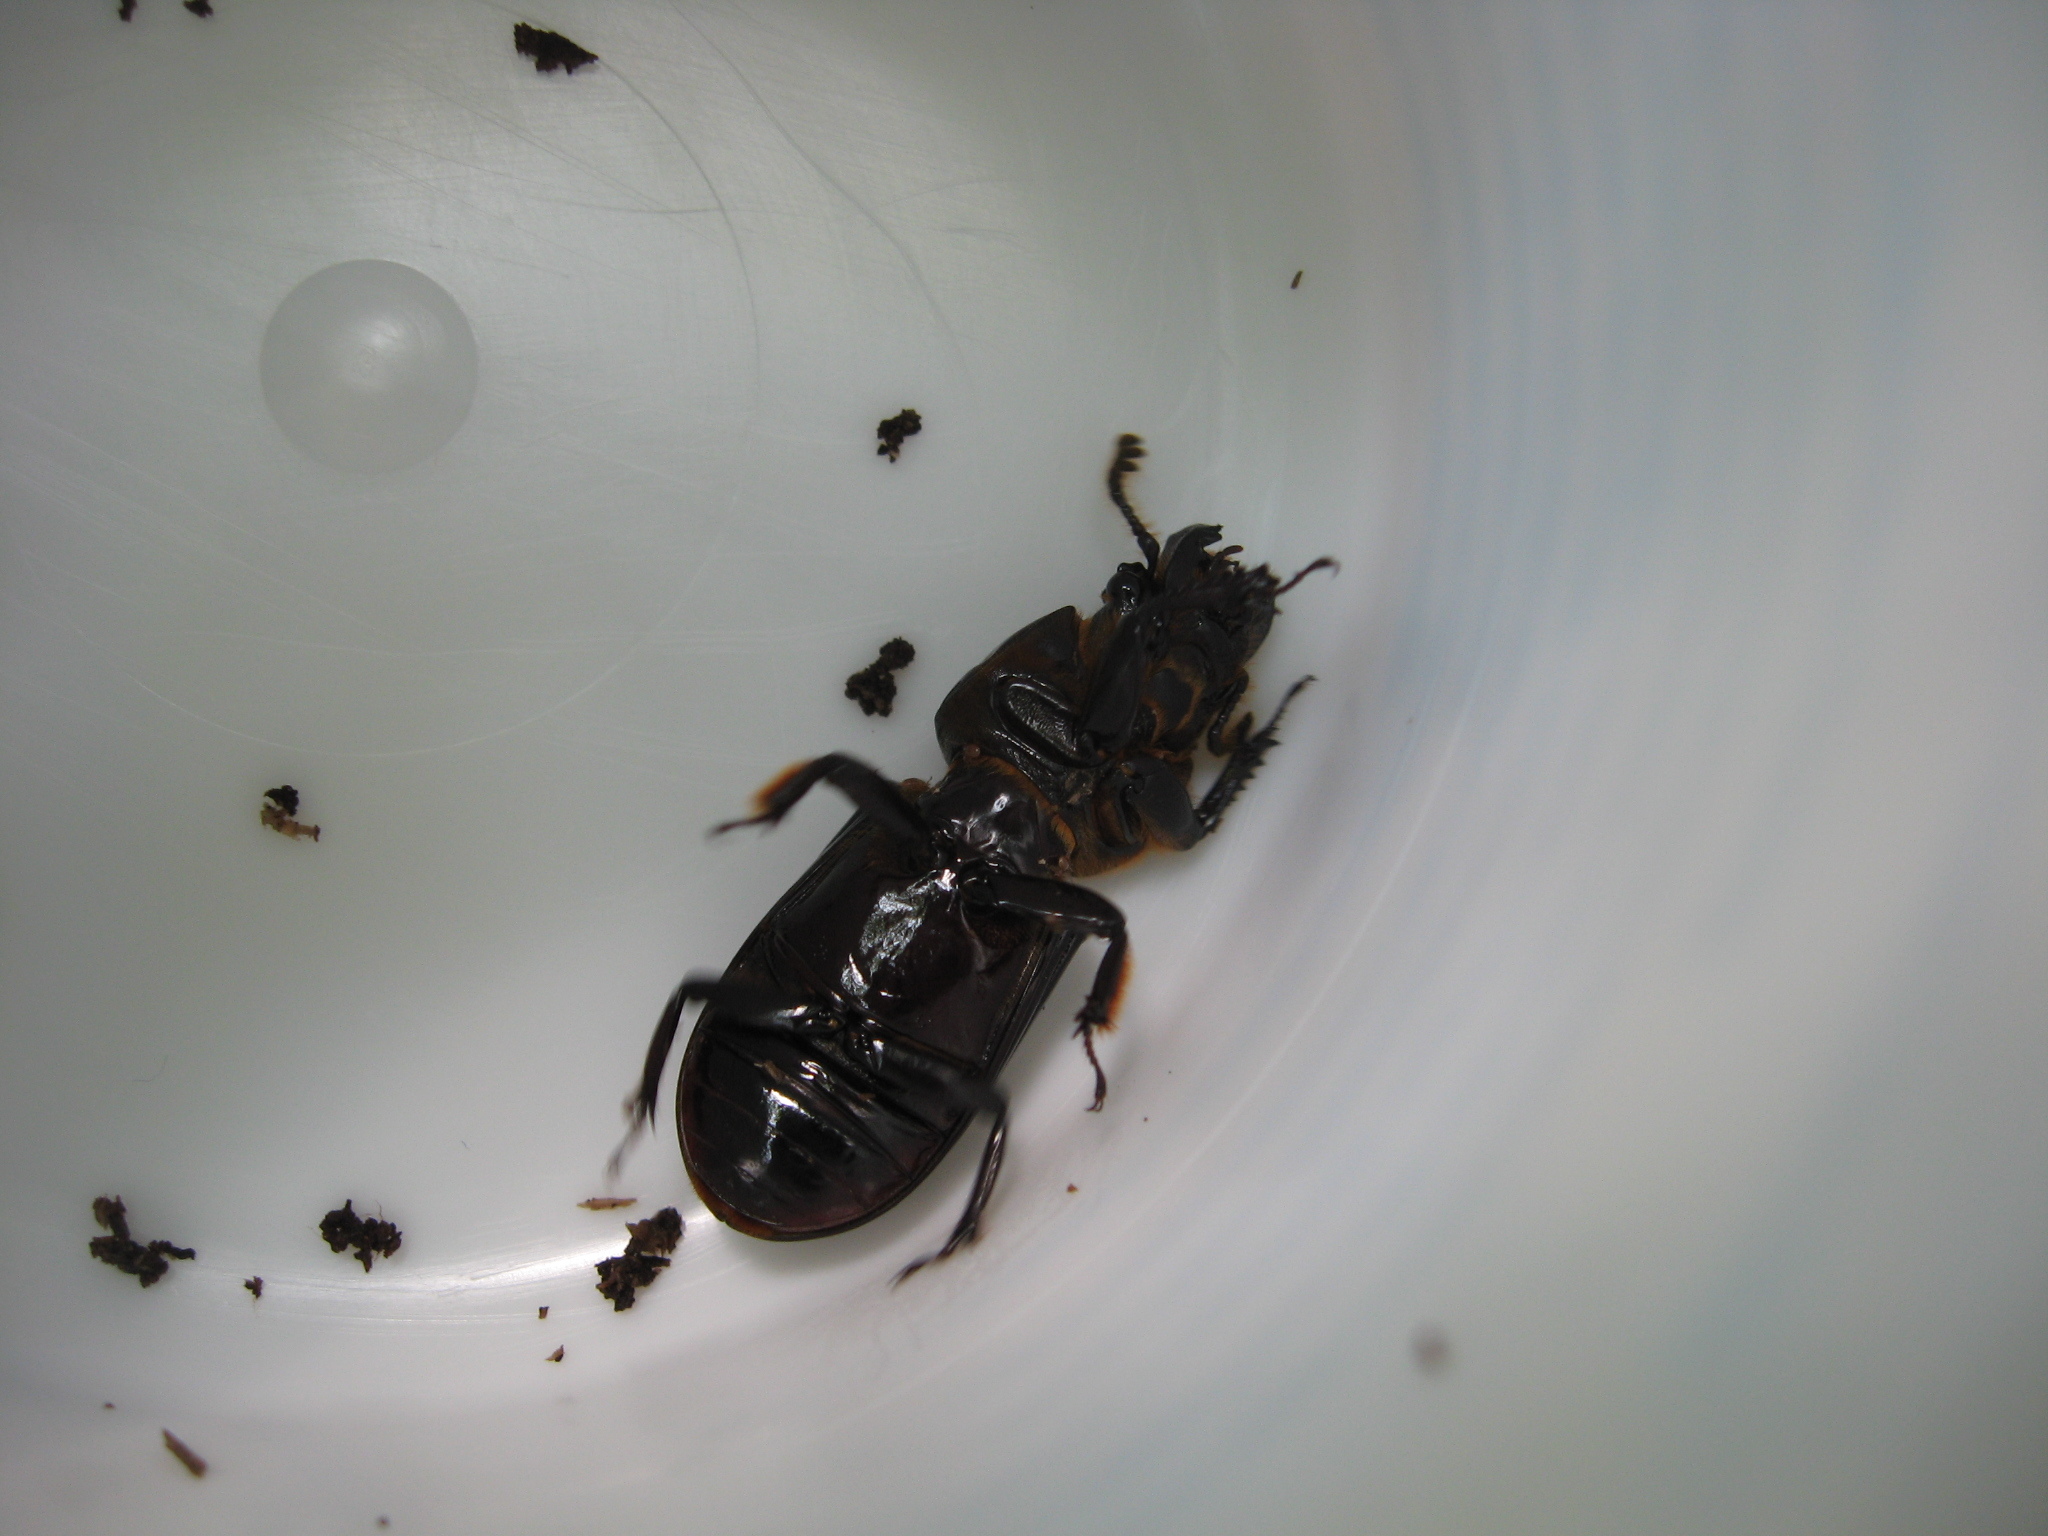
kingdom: Animalia
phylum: Arthropoda
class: Insecta
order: Coleoptera
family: Passalidae
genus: Odontotaenius
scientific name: Odontotaenius disjunctus
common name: Patent leather beetle
